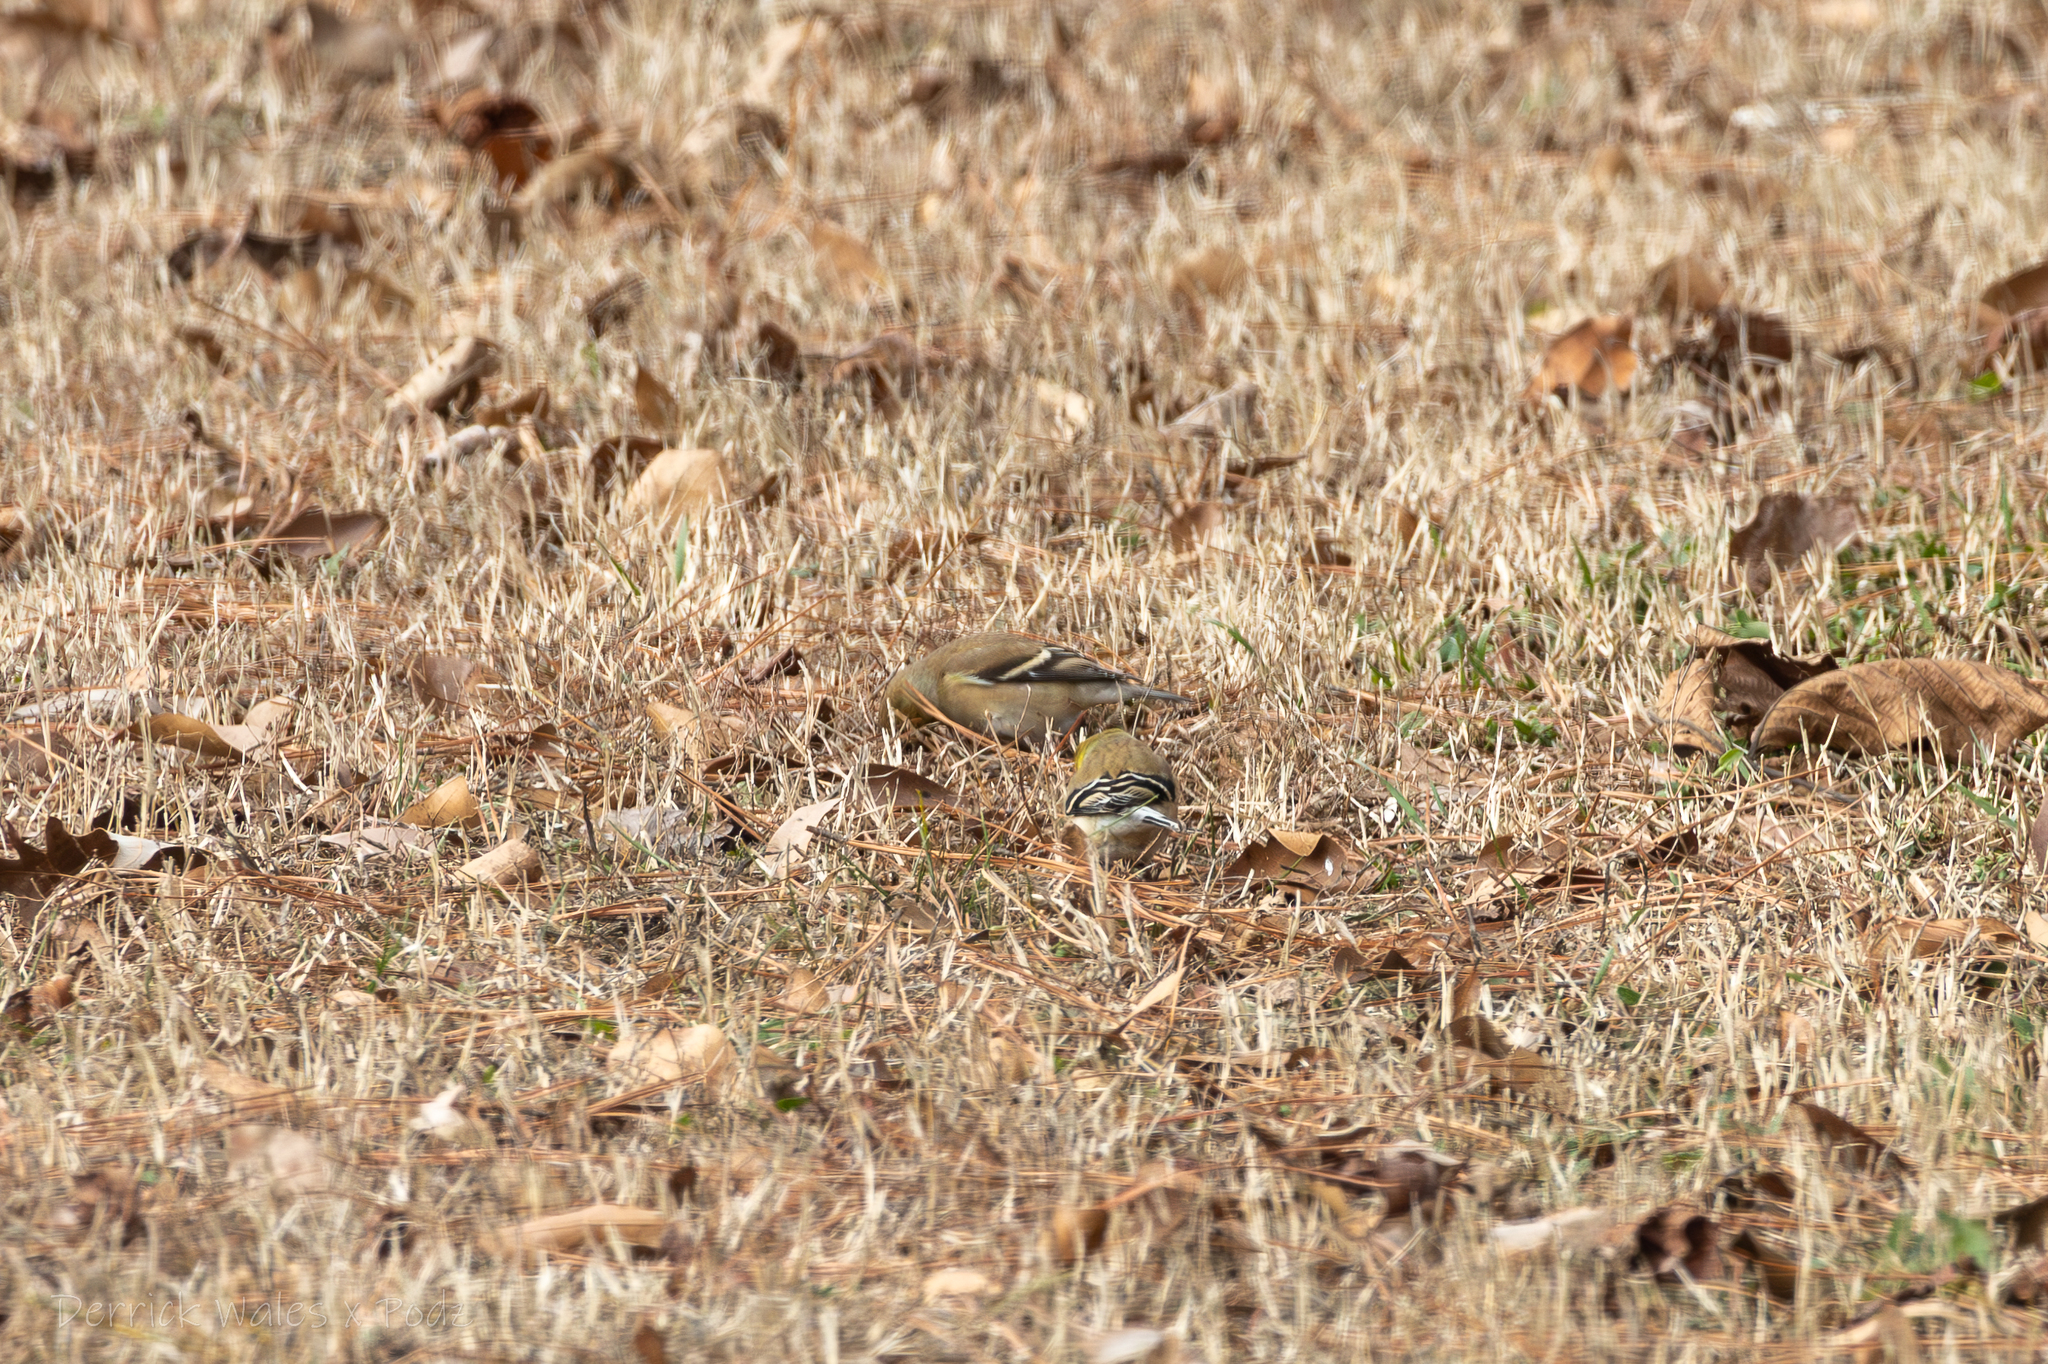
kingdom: Animalia
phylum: Chordata
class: Aves
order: Passeriformes
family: Fringillidae
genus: Spinus
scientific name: Spinus tristis
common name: American goldfinch
